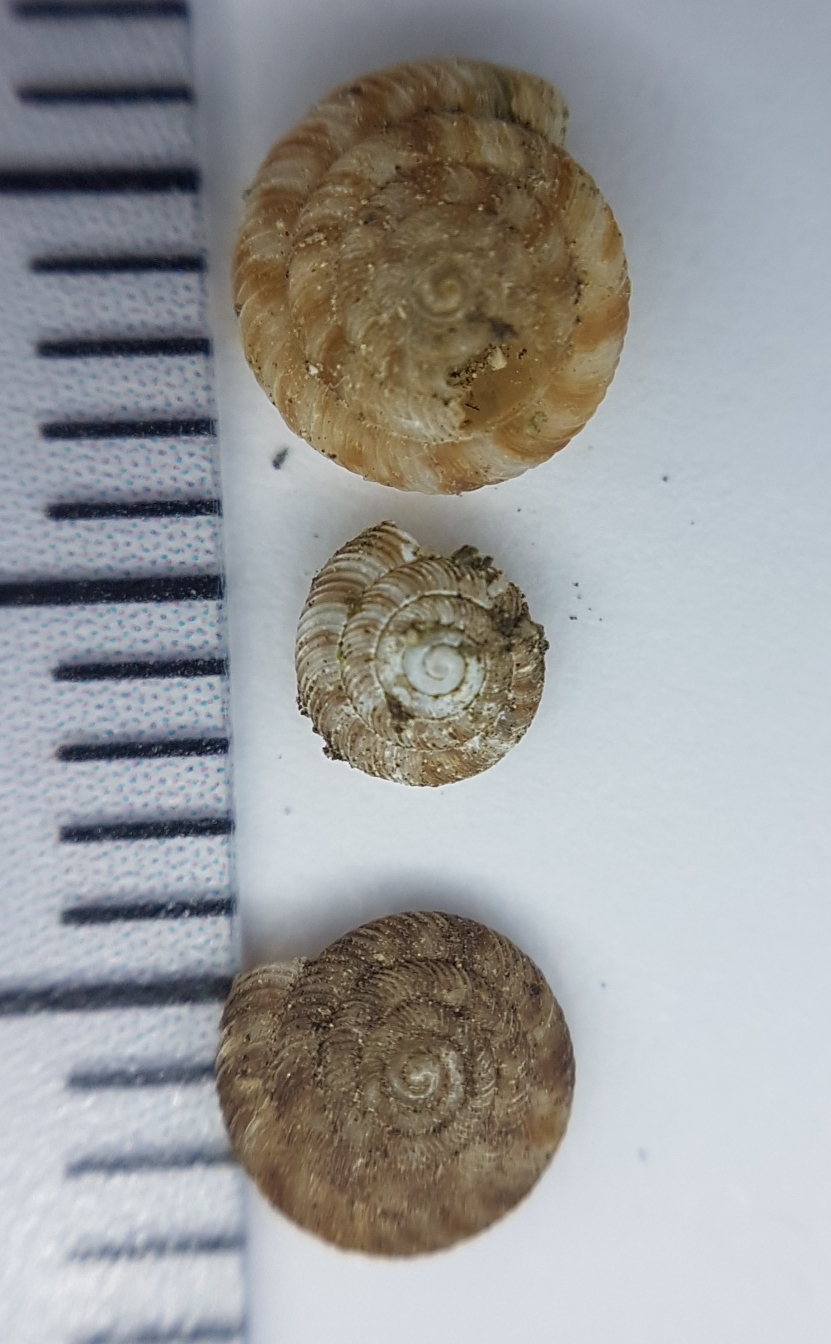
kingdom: Animalia
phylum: Mollusca
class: Gastropoda
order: Stylommatophora
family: Discidae
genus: Discus
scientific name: Discus rotundatus
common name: Rounded snail
